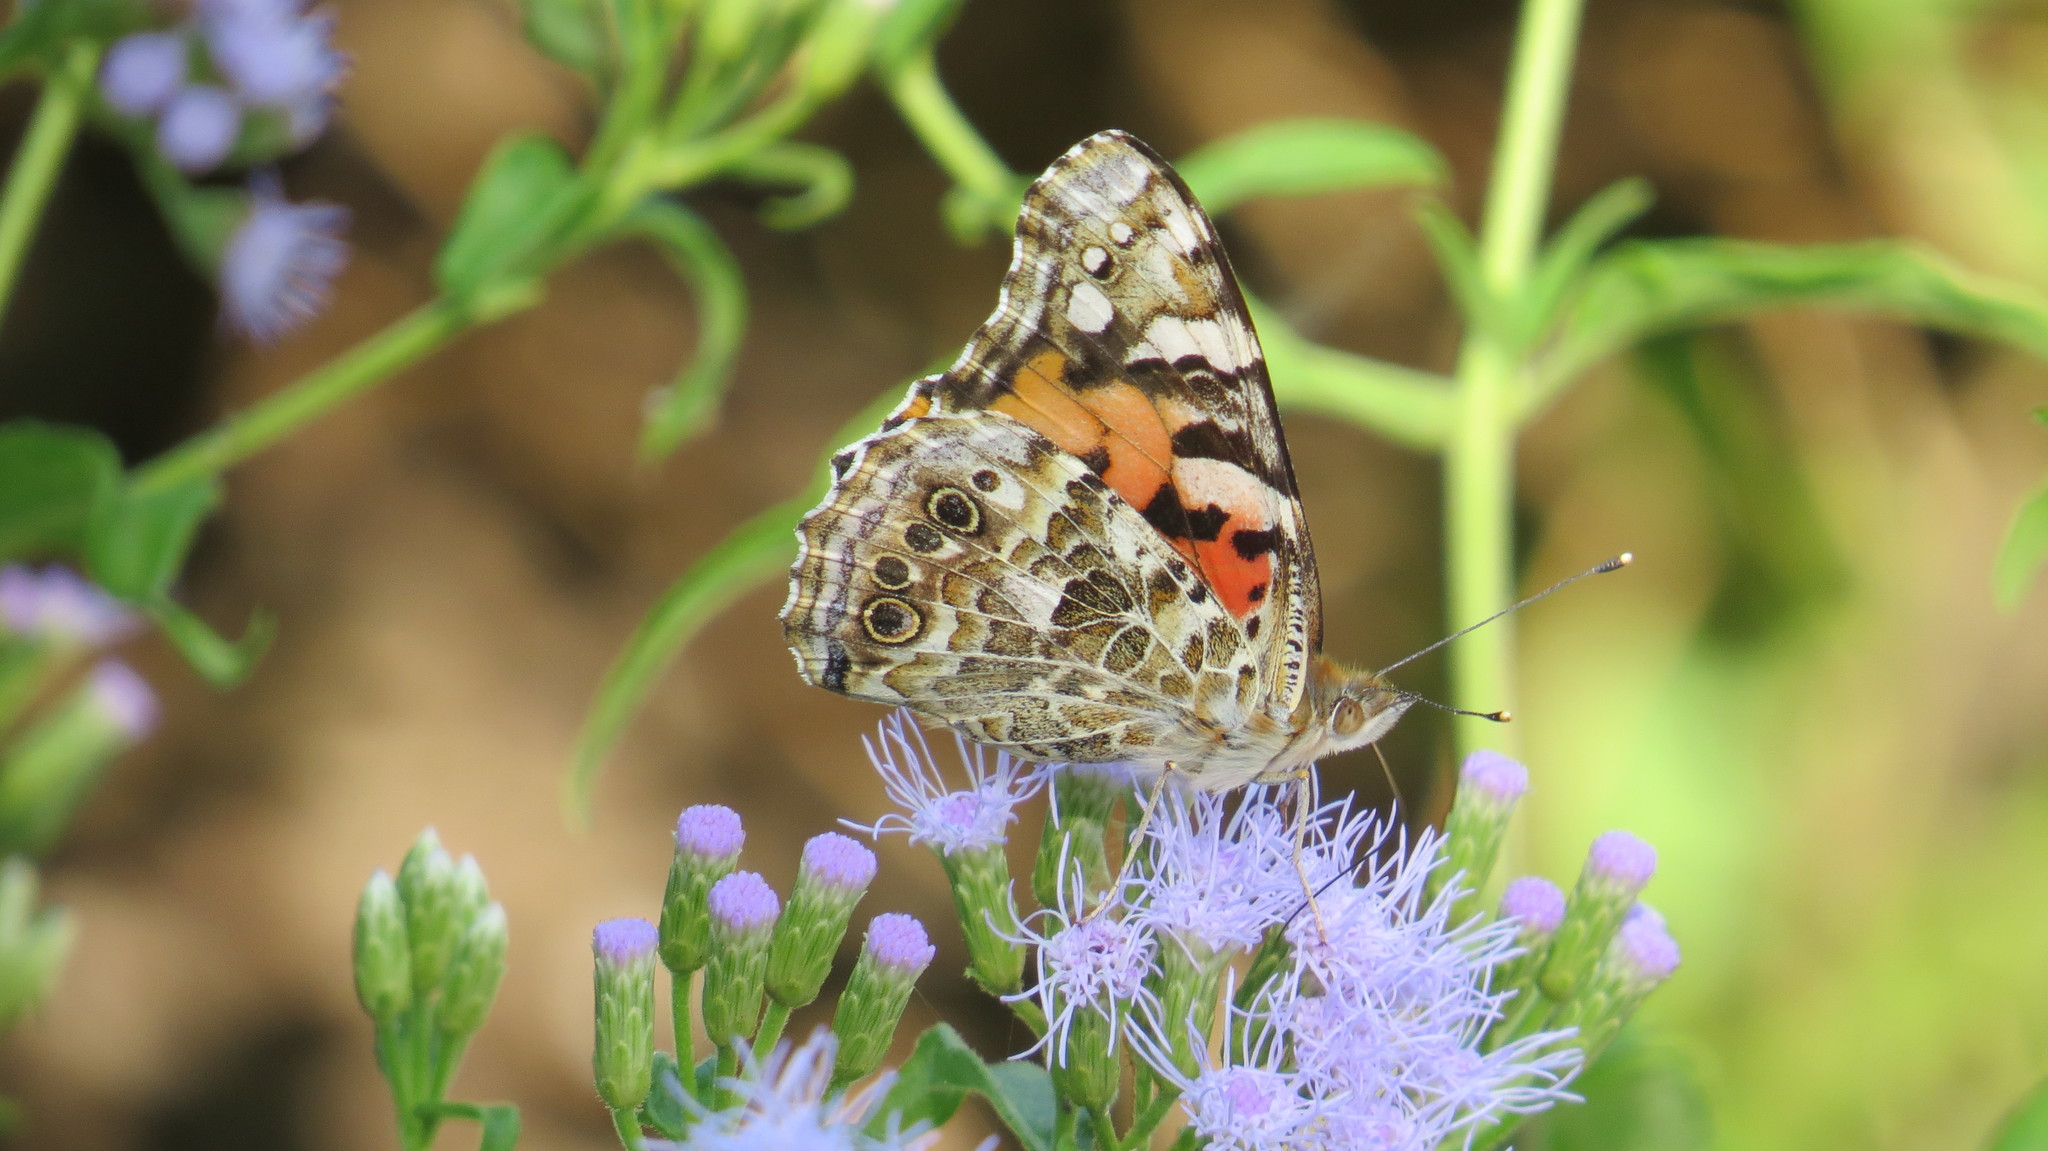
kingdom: Animalia
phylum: Arthropoda
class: Insecta
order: Lepidoptera
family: Nymphalidae
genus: Vanessa
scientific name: Vanessa cardui
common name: Painted lady
